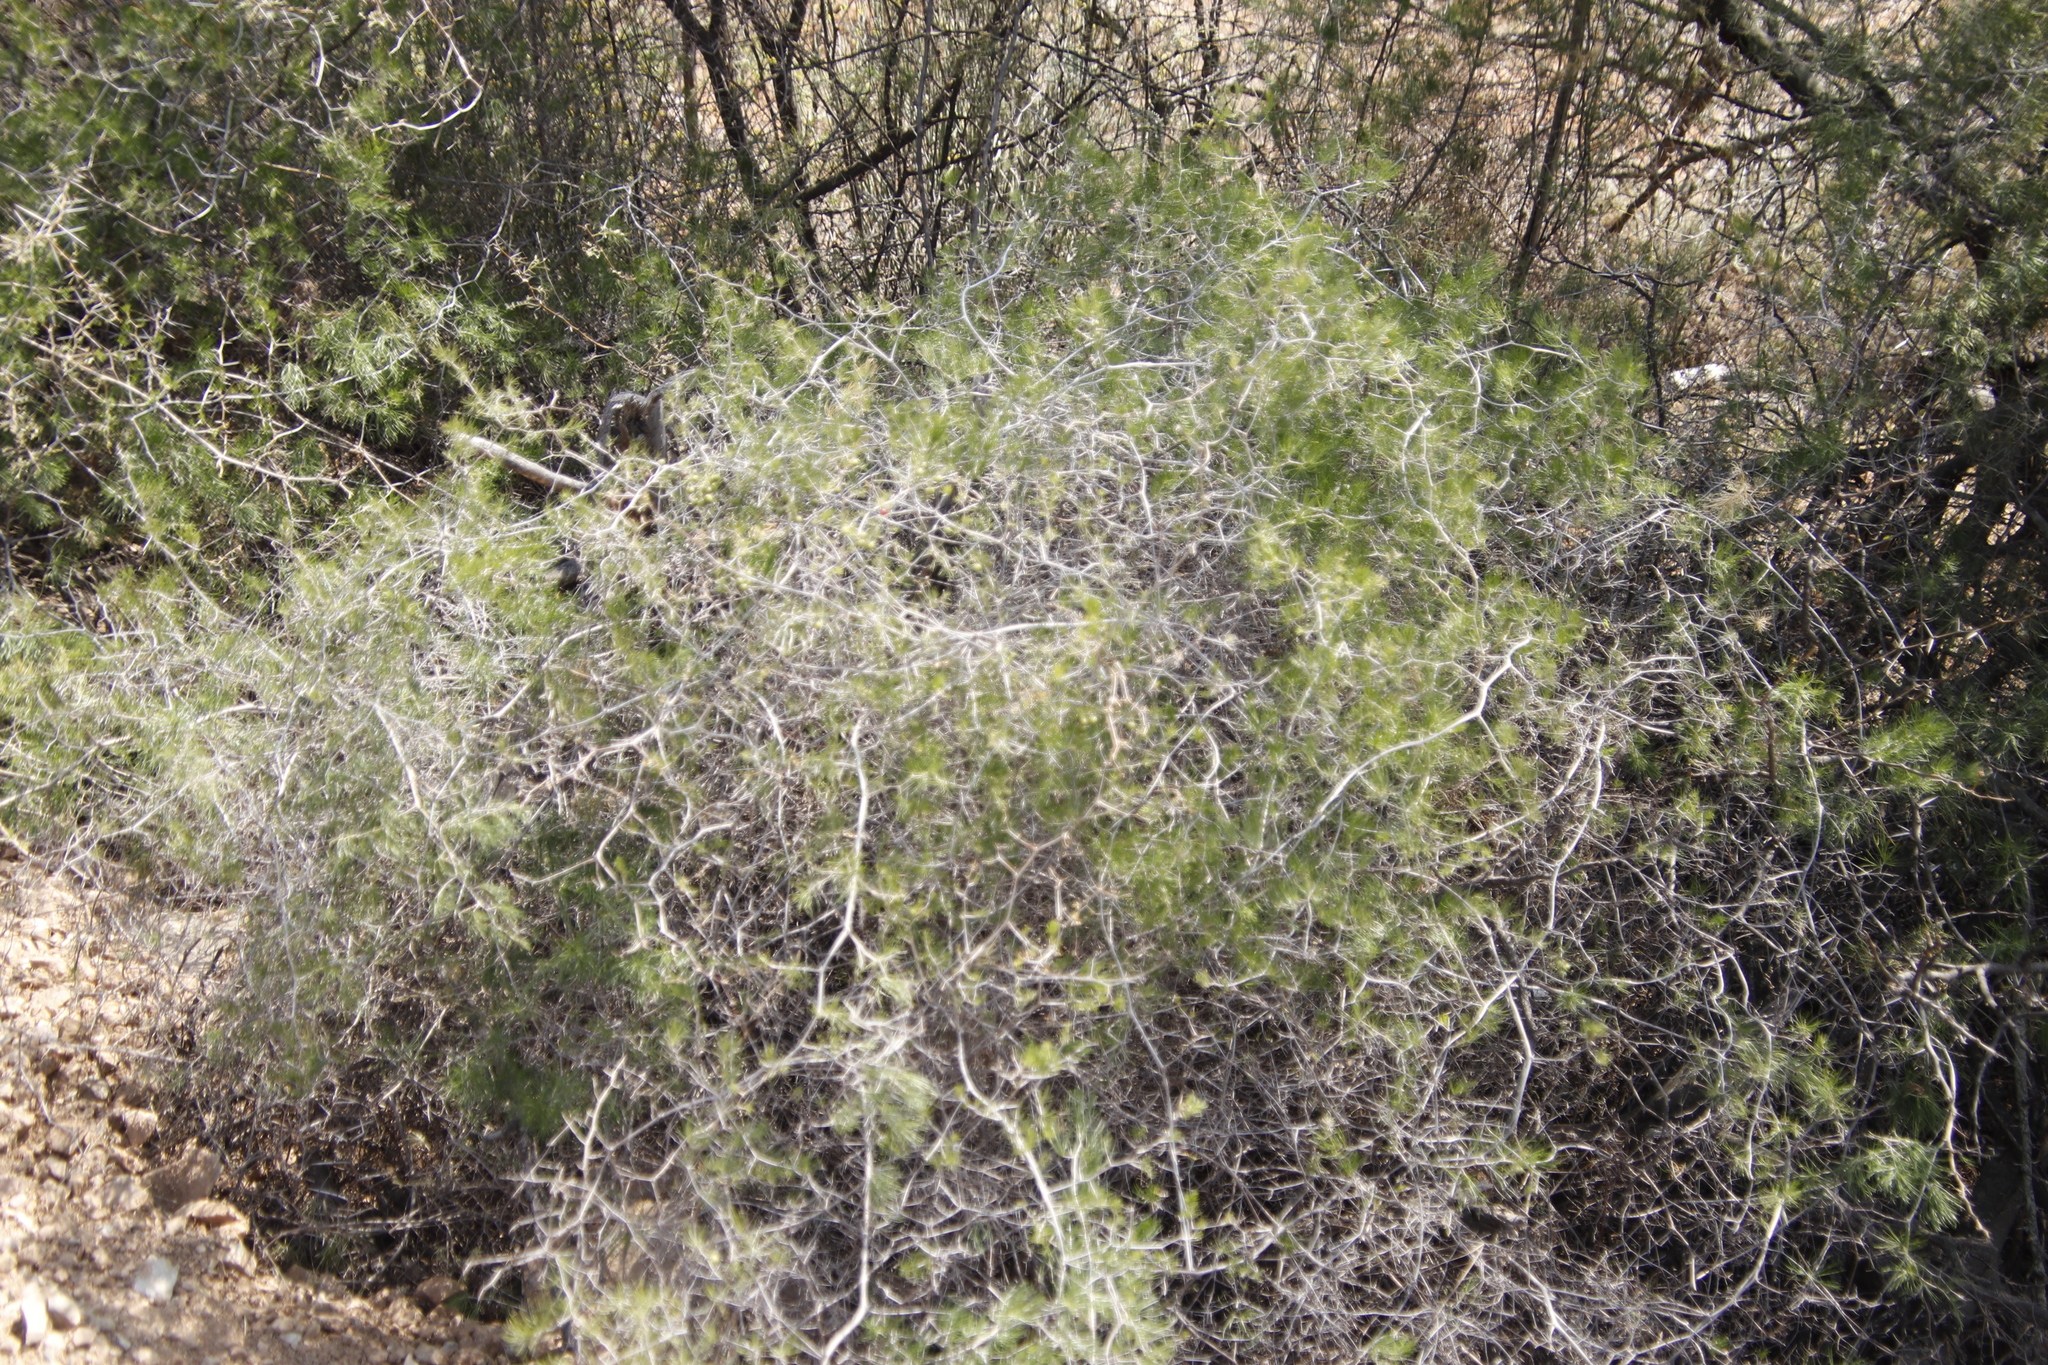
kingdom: Plantae
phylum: Tracheophyta
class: Liliopsida
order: Asparagales
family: Asparagaceae
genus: Asparagus
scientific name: Asparagus retrofractus
